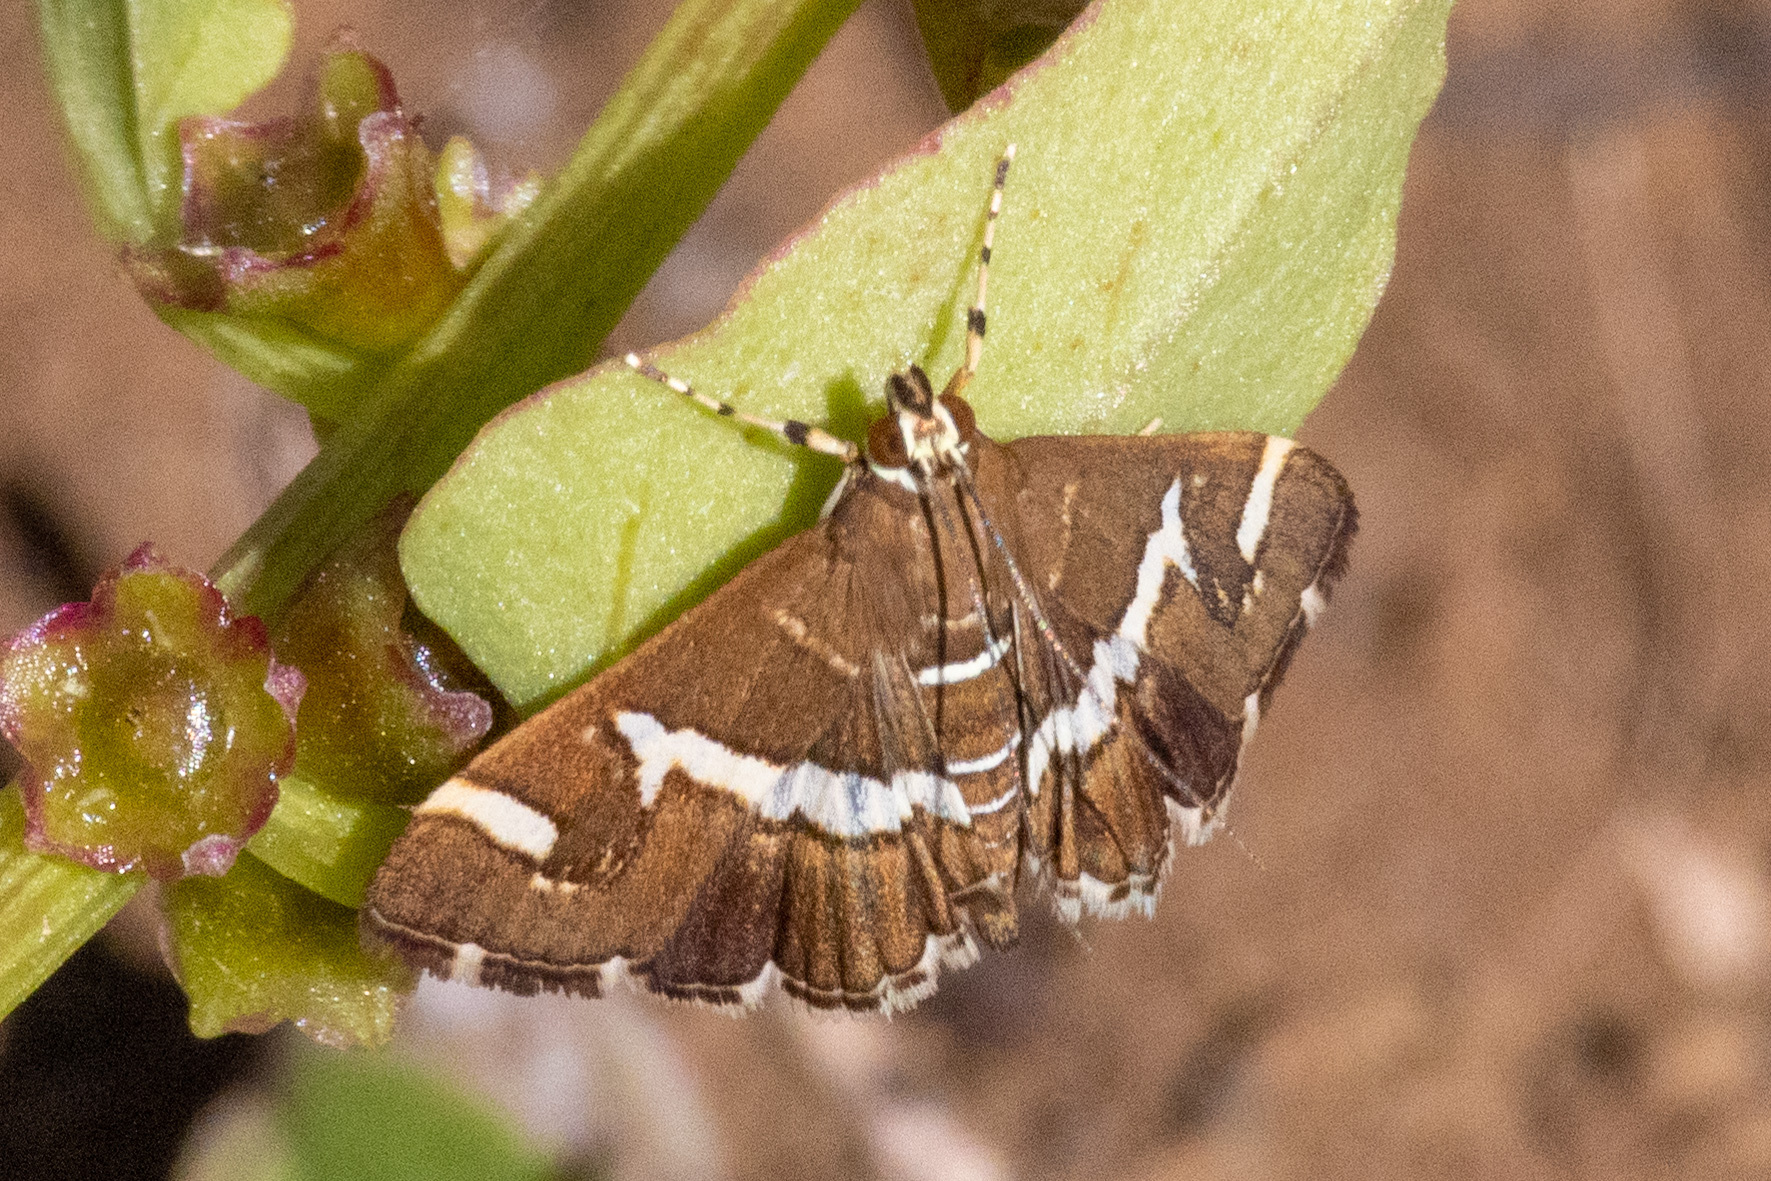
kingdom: Animalia
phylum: Arthropoda
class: Insecta
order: Lepidoptera
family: Crambidae
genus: Spoladea
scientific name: Spoladea recurvalis
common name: Beet webworm moth
